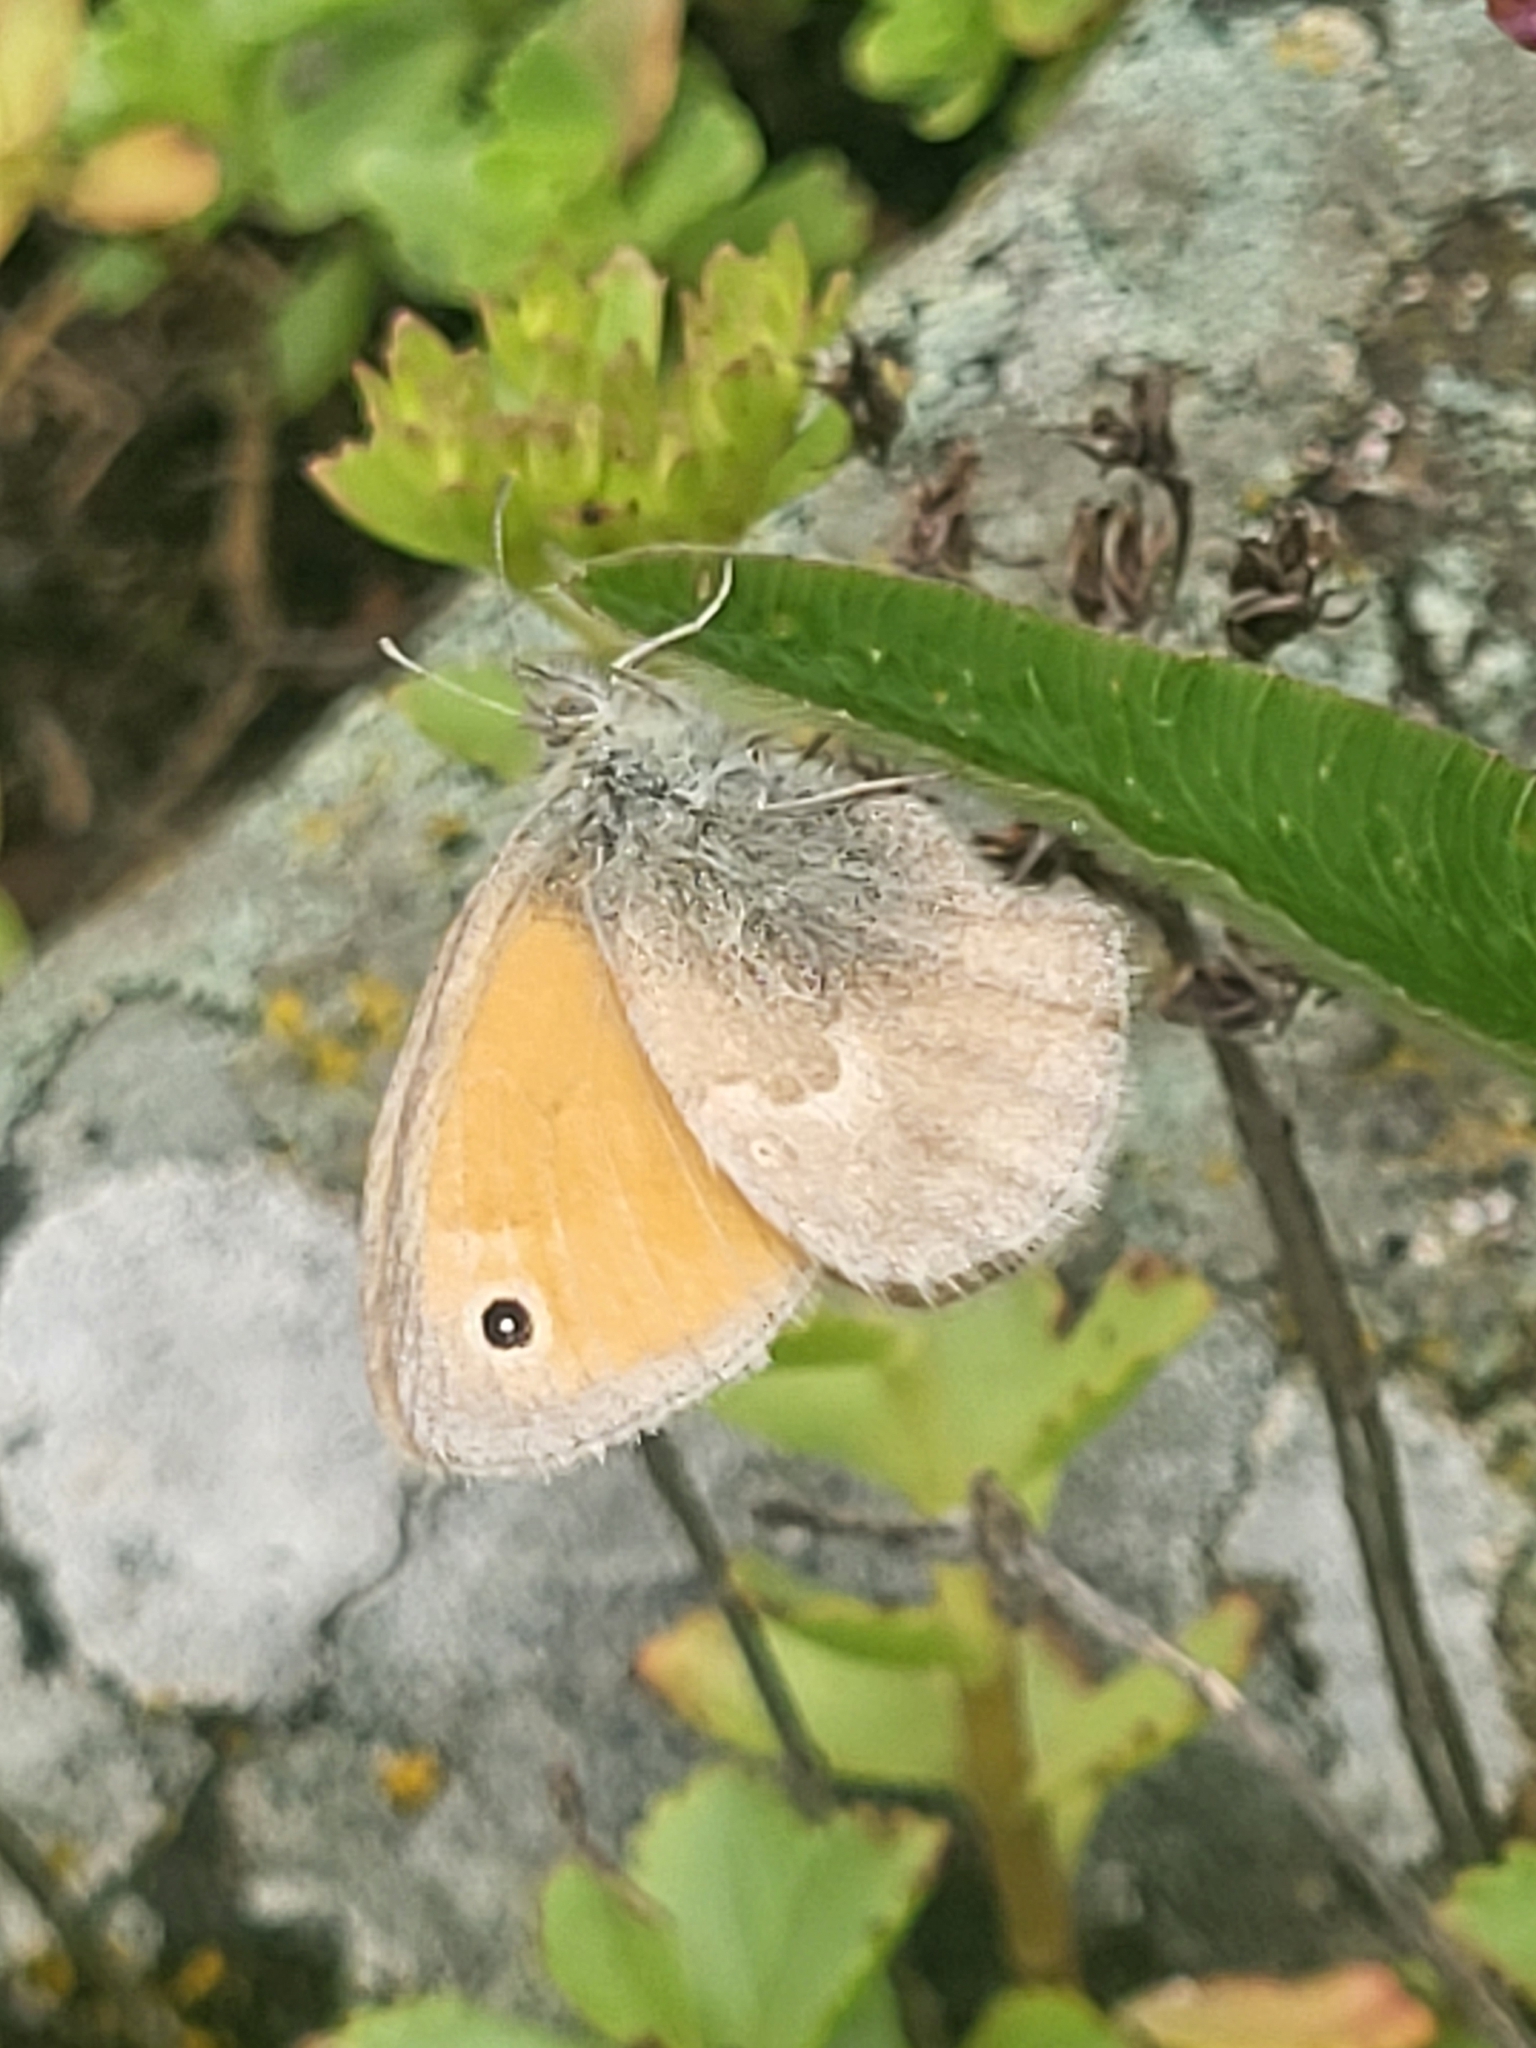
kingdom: Animalia
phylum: Arthropoda
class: Insecta
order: Lepidoptera
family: Nymphalidae
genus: Coenonympha
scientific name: Coenonympha pamphilus
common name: Small heath
